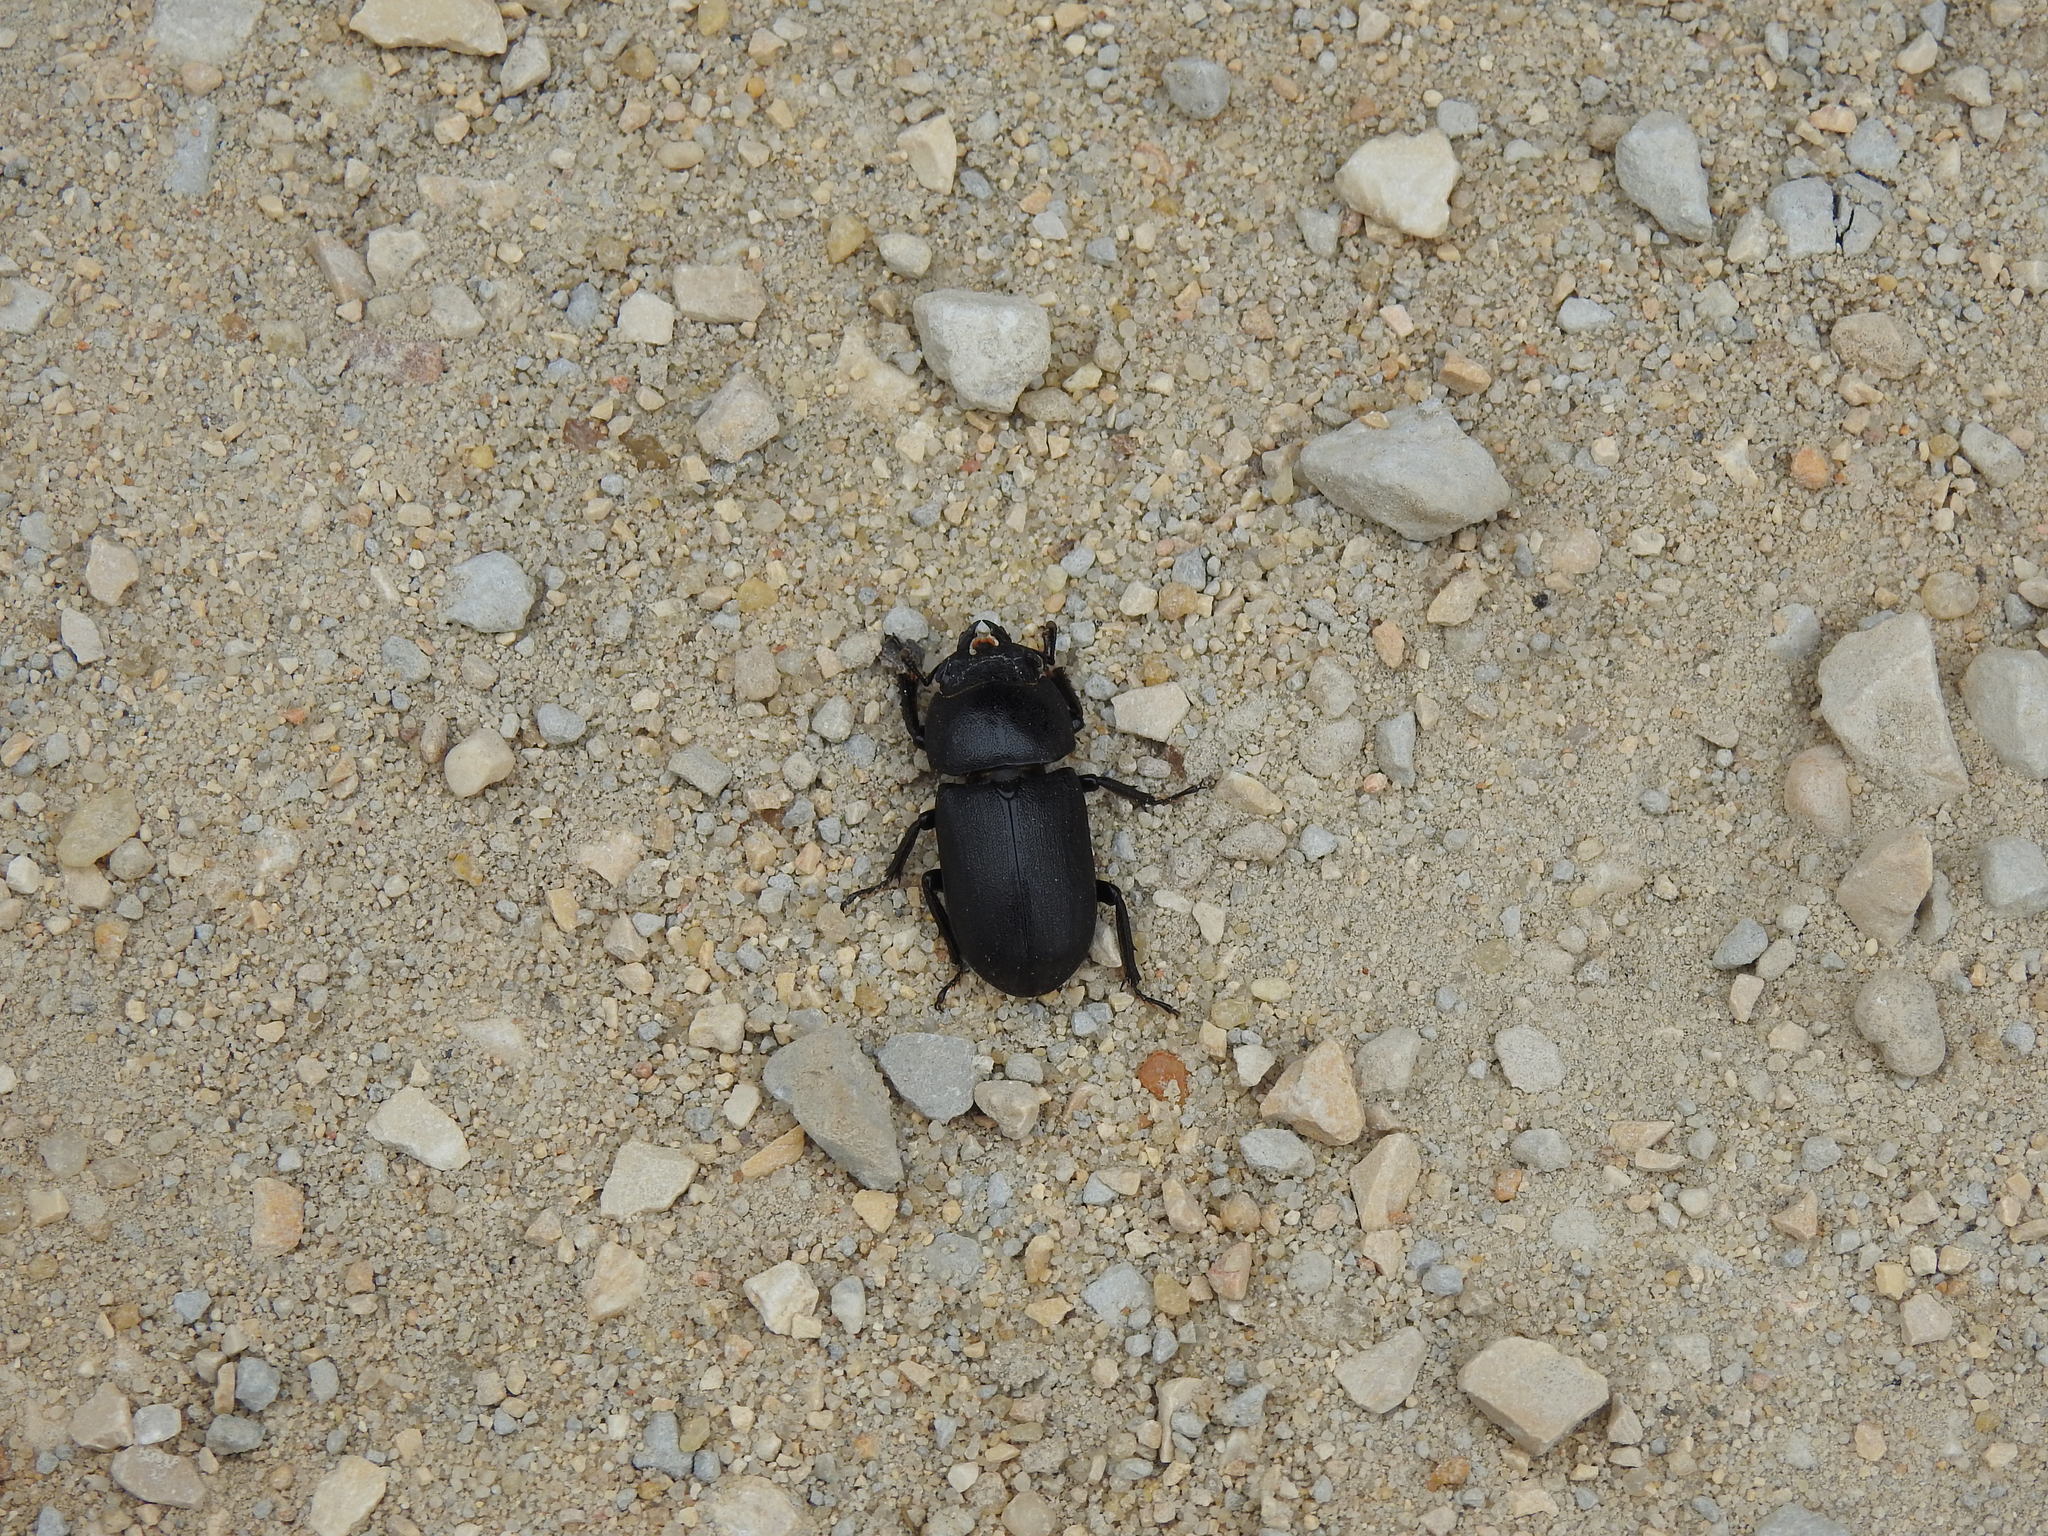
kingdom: Animalia
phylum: Arthropoda
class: Insecta
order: Coleoptera
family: Lucanidae
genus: Dorcus
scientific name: Dorcus parallelipipedus
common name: Lesser stag beetle
